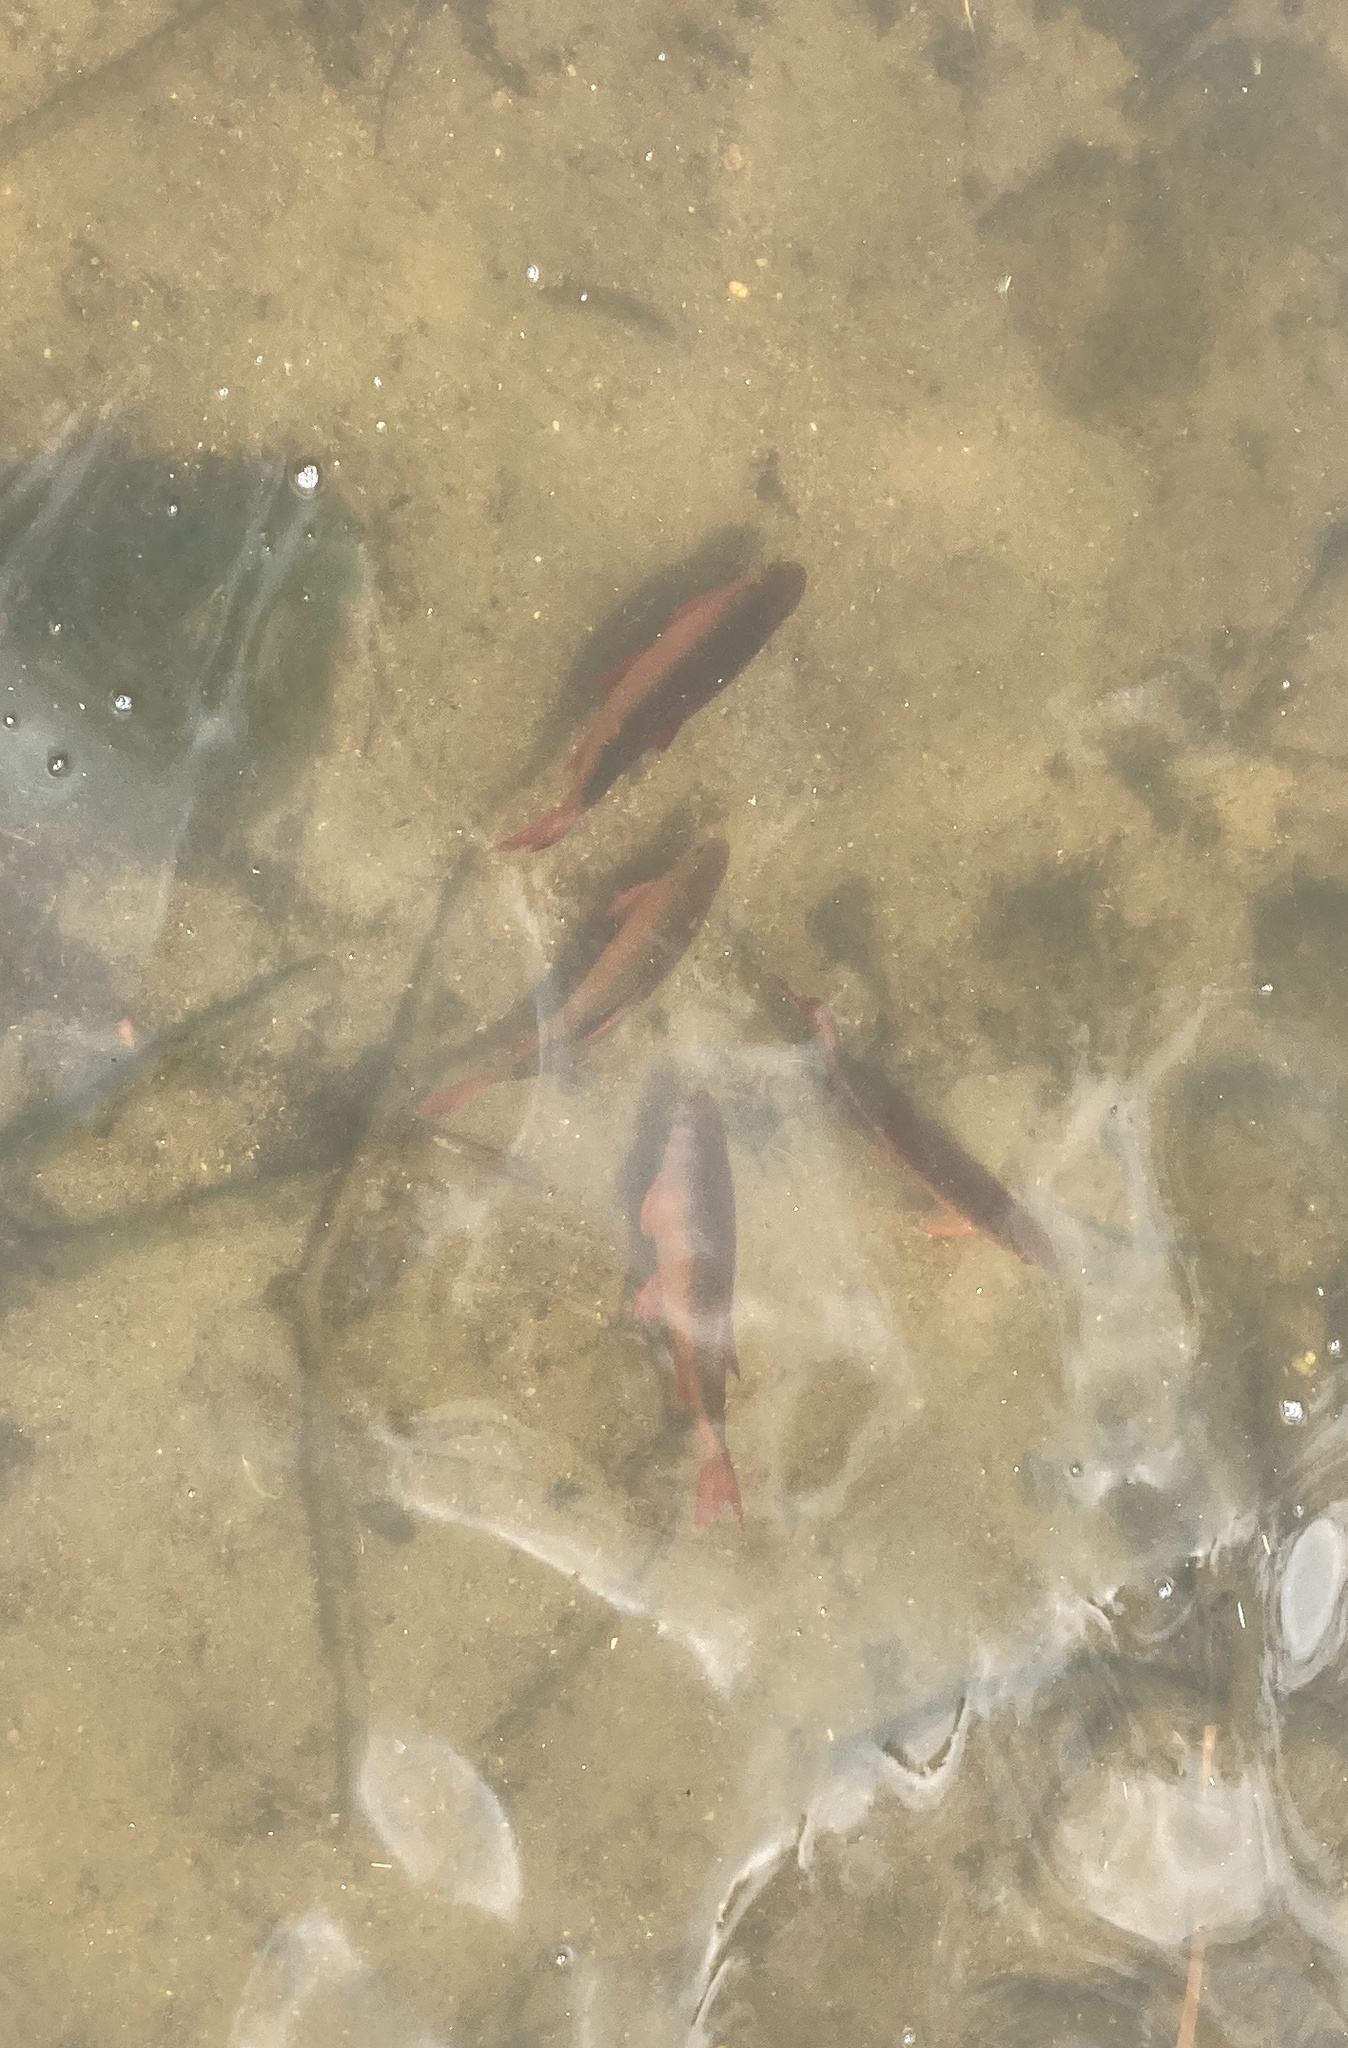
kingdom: Animalia
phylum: Chordata
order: Cypriniformes
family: Cyprinidae
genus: Scardinius
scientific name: Scardinius erythrophthalmus
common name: Rudd
